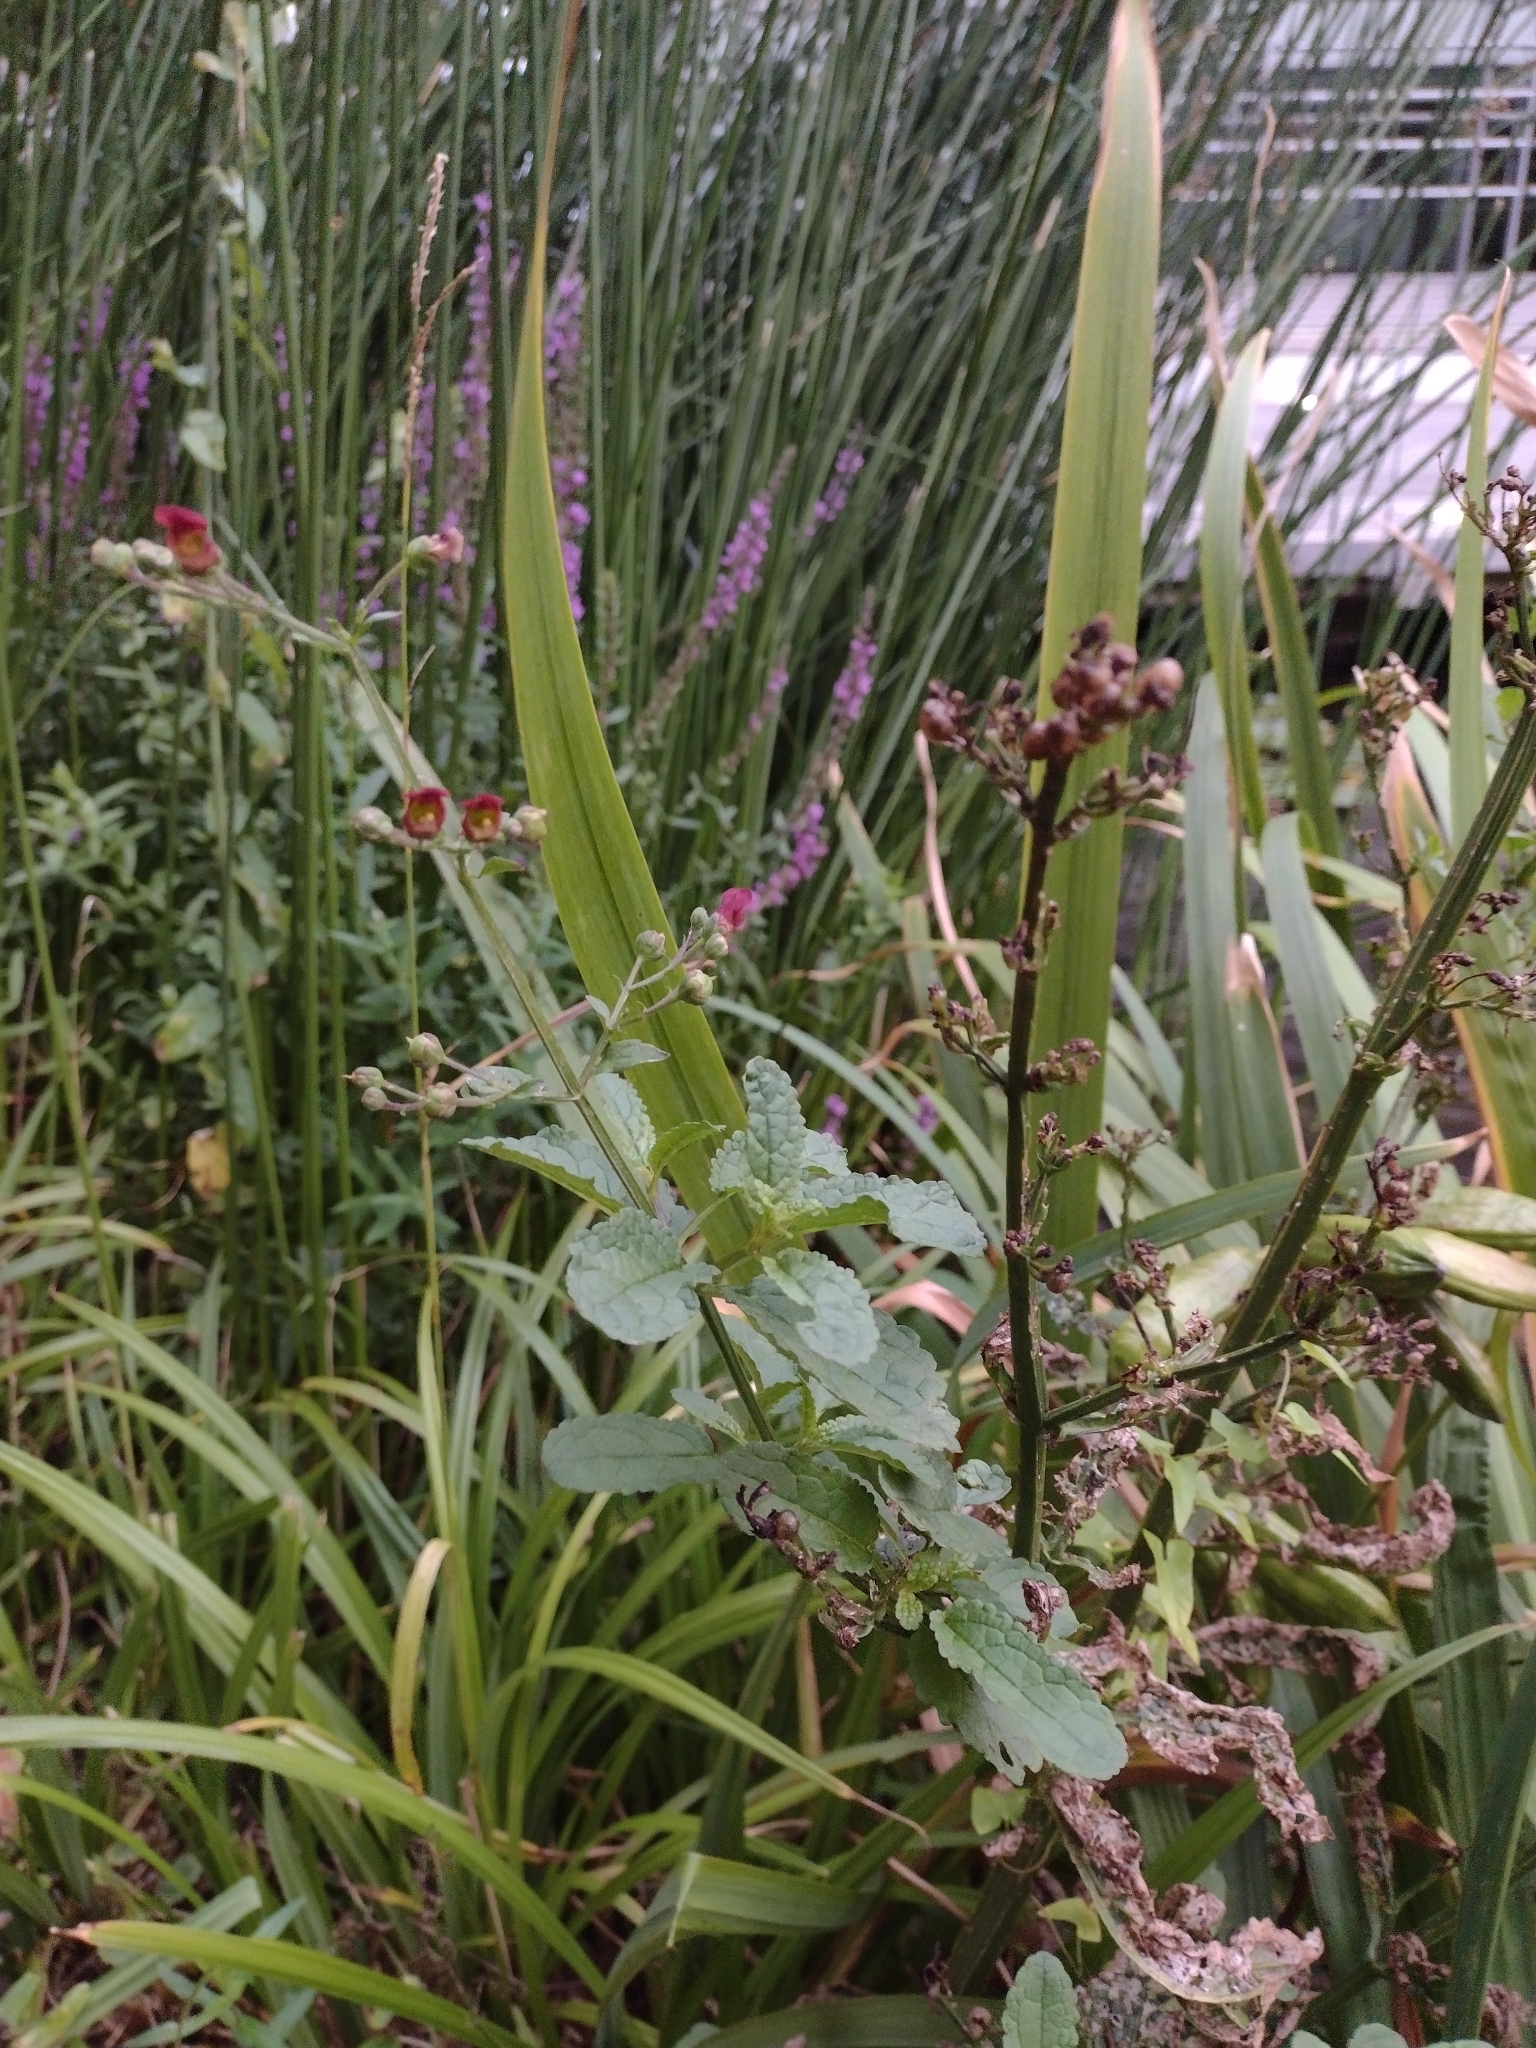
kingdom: Plantae
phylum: Tracheophyta
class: Magnoliopsida
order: Lamiales
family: Scrophulariaceae
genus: Scrophularia
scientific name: Scrophularia auriculata
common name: Water betony
